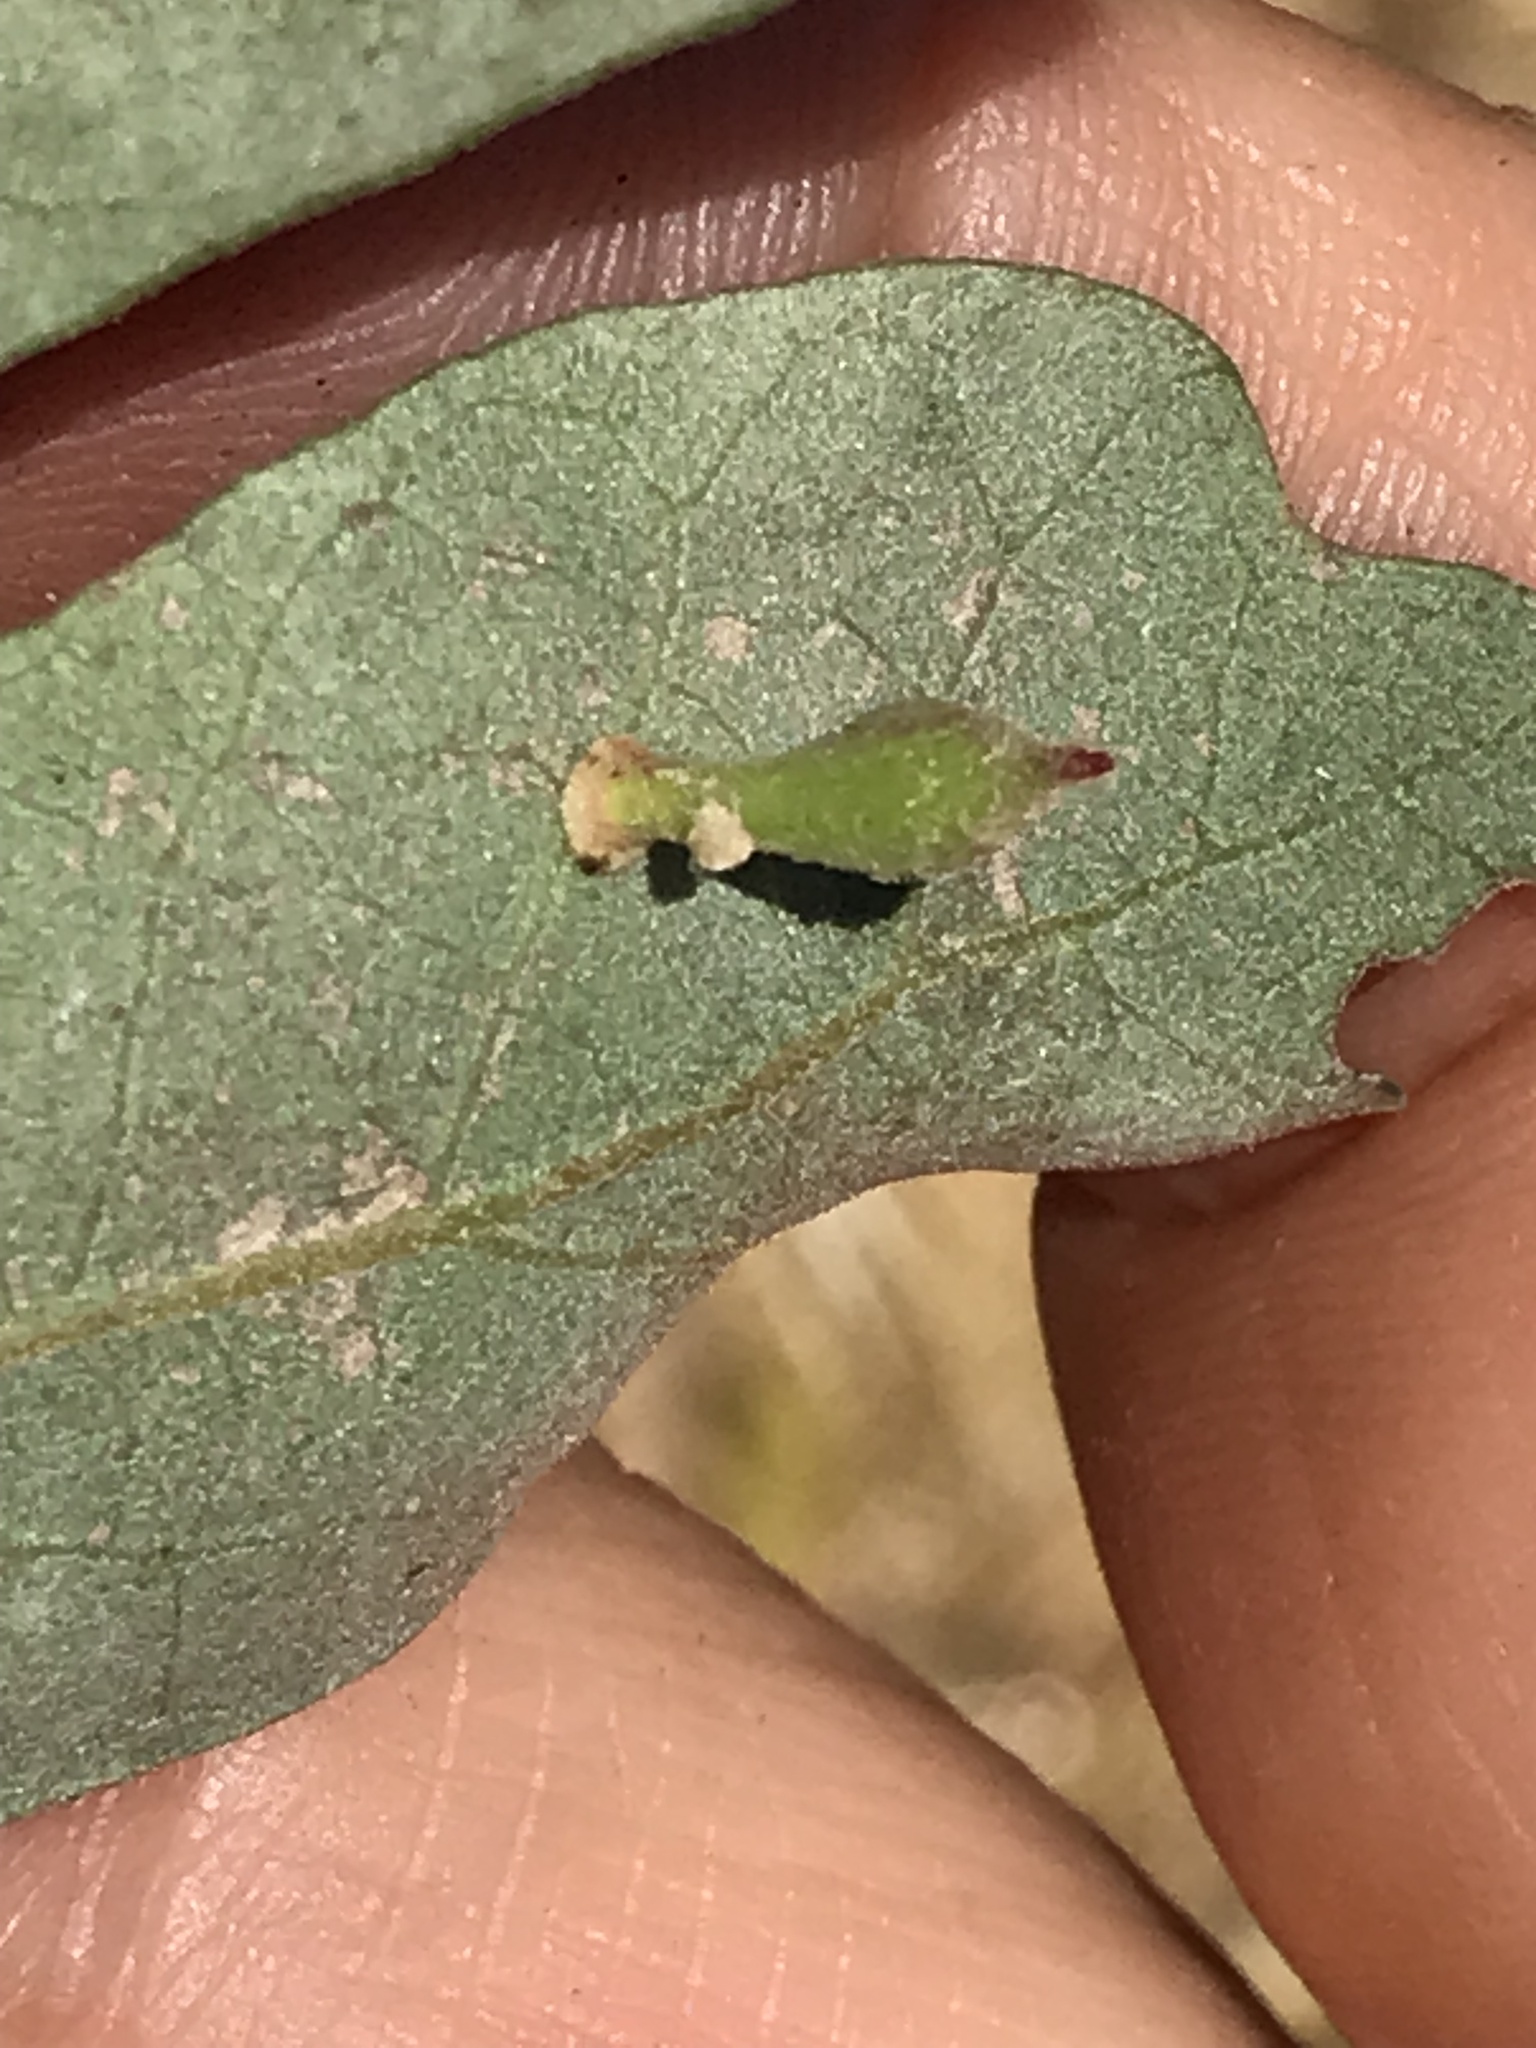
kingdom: Animalia
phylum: Arthropoda
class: Insecta
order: Hymenoptera
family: Cynipidae
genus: Atrusca
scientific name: Atrusca
